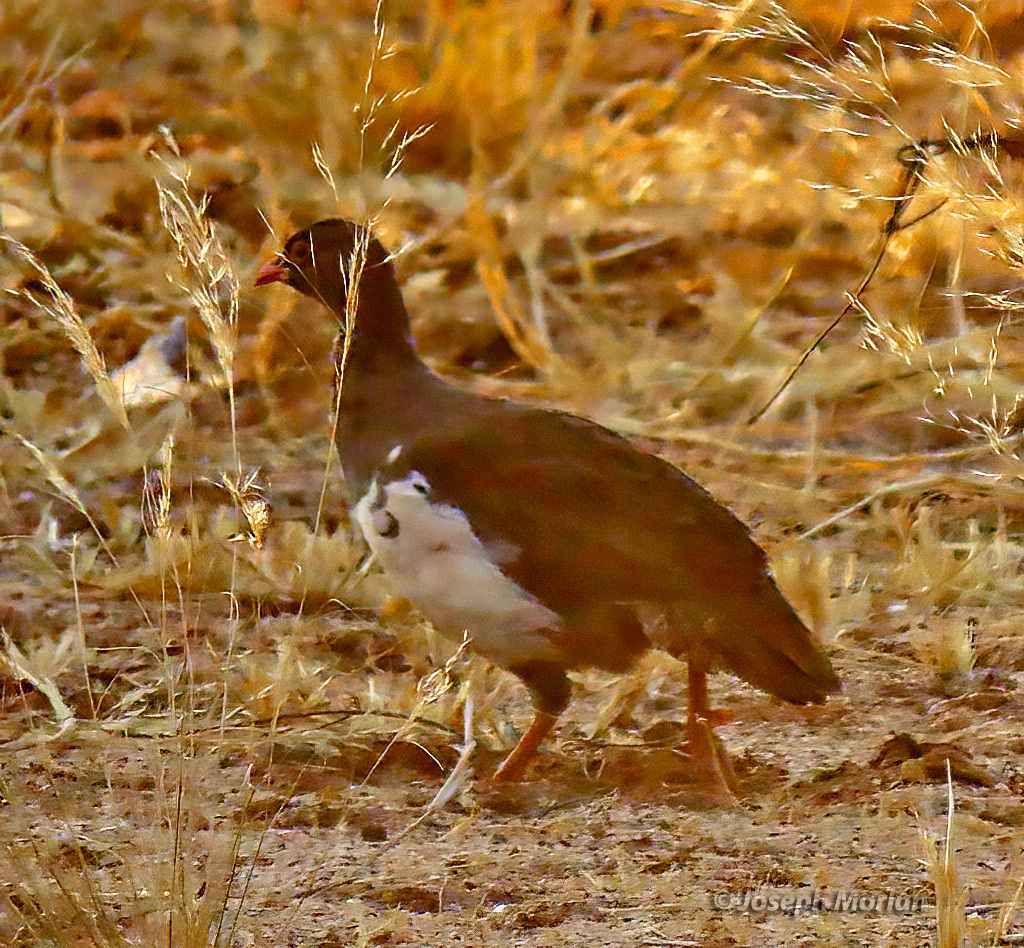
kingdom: Animalia
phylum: Chordata
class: Aves
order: Galliformes
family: Phasianidae
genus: Pternistis
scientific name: Pternistis adspersus
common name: Red-billed spurfowl
